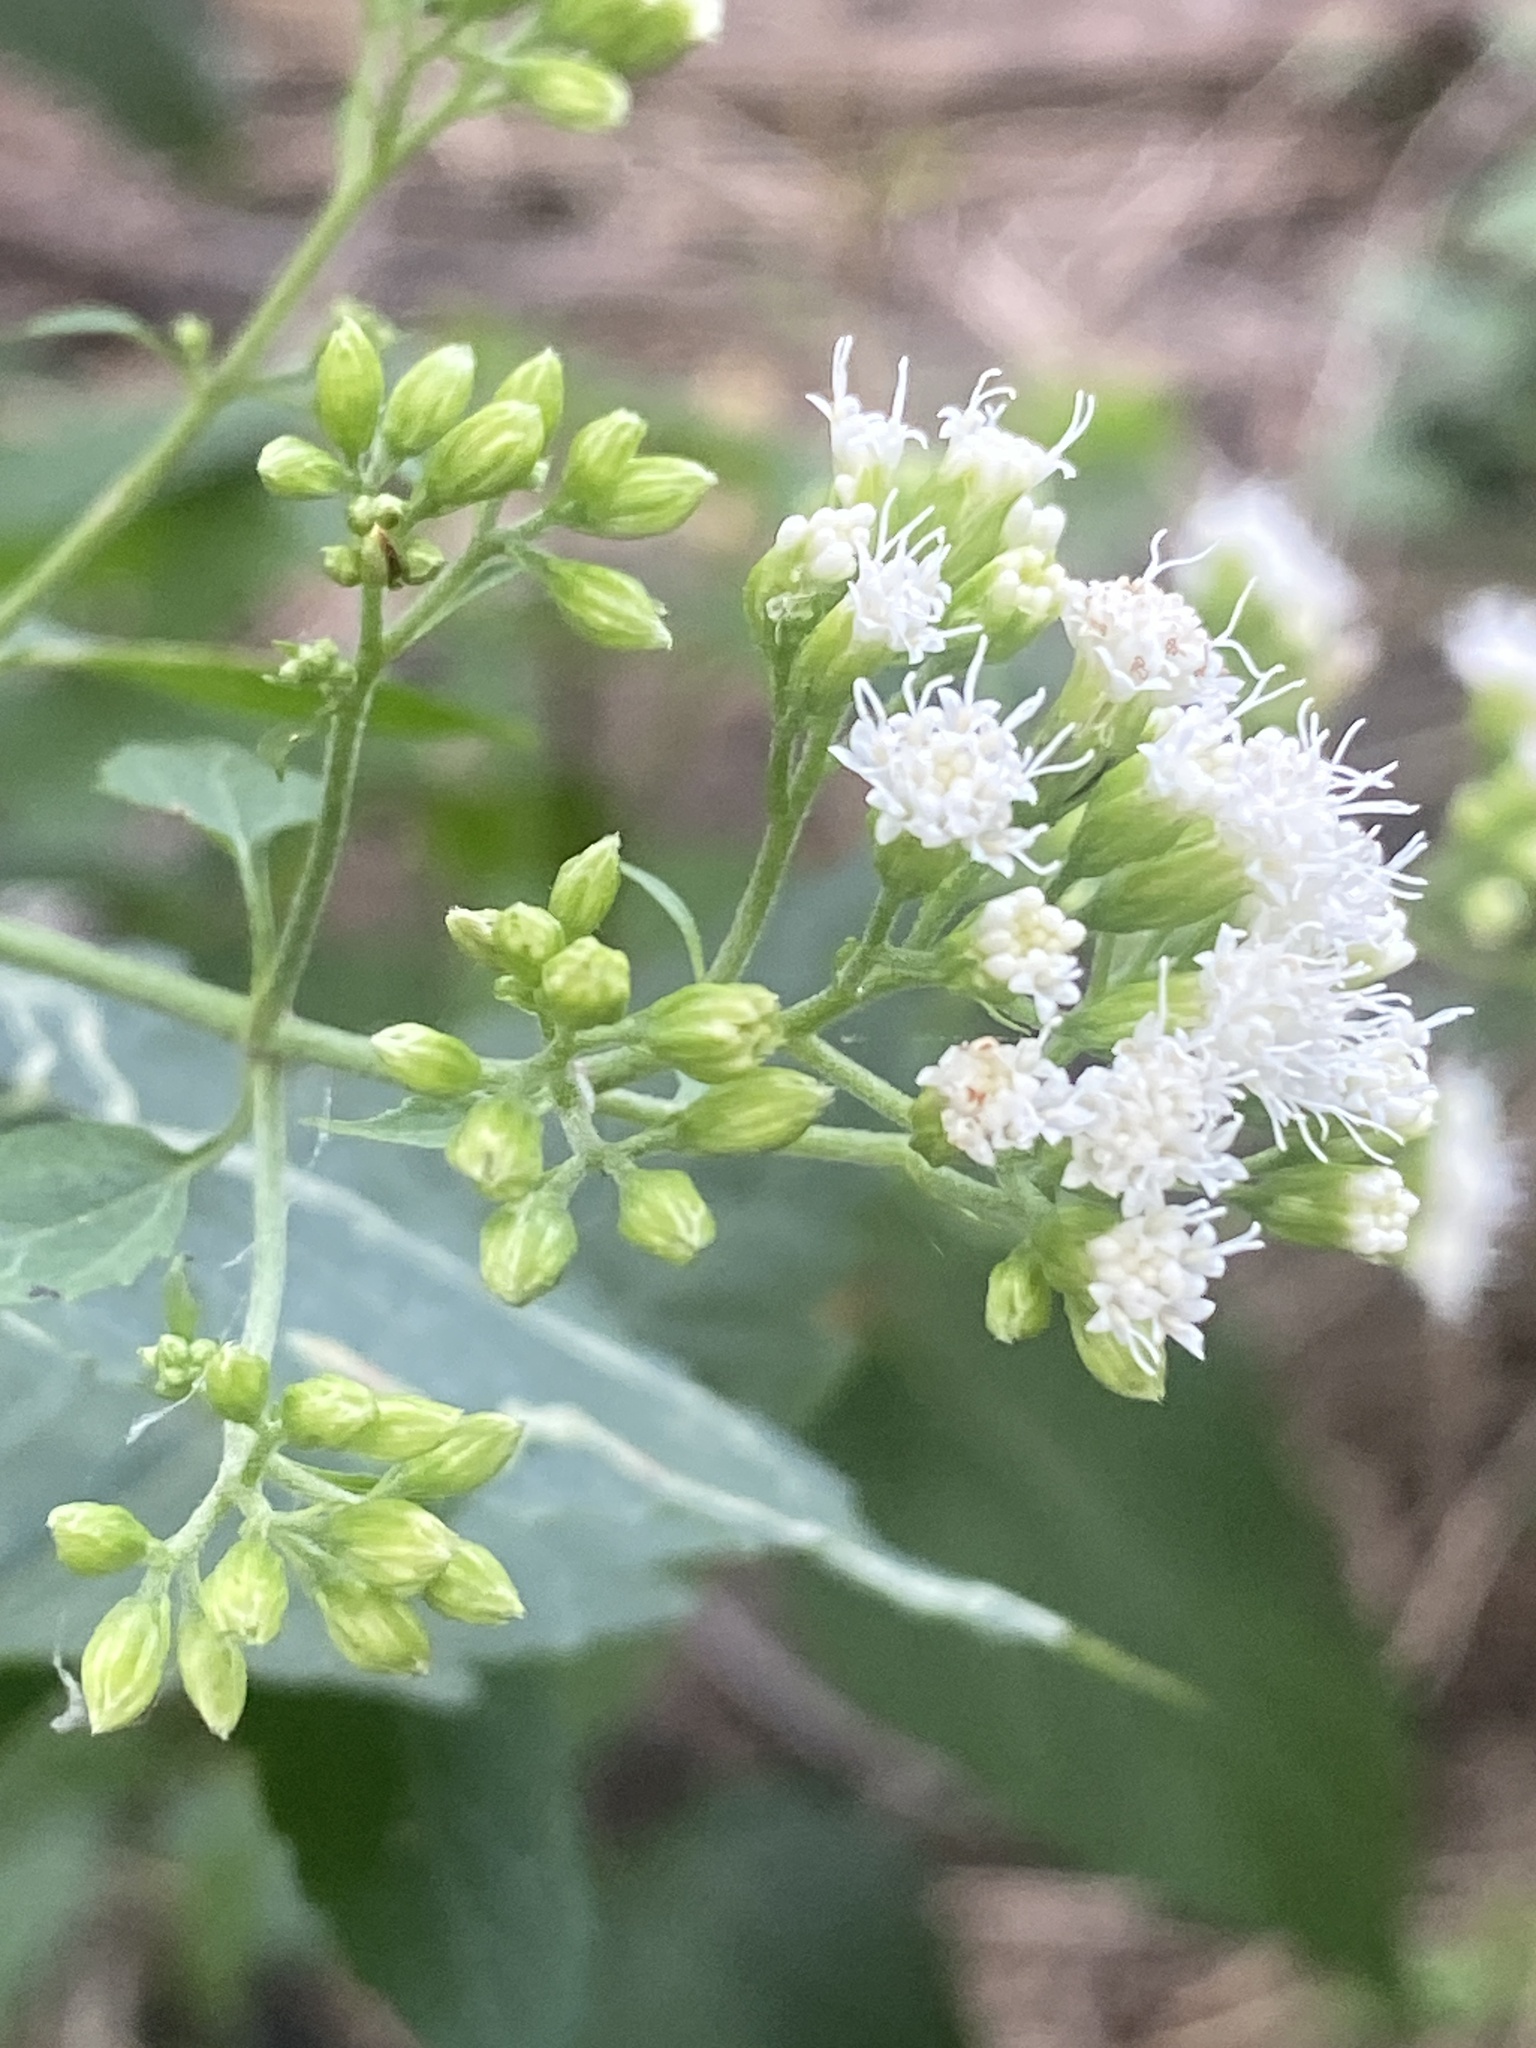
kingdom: Plantae
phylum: Tracheophyta
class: Magnoliopsida
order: Asterales
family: Asteraceae
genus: Ageratina
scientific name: Ageratina altissima
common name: White snakeroot
